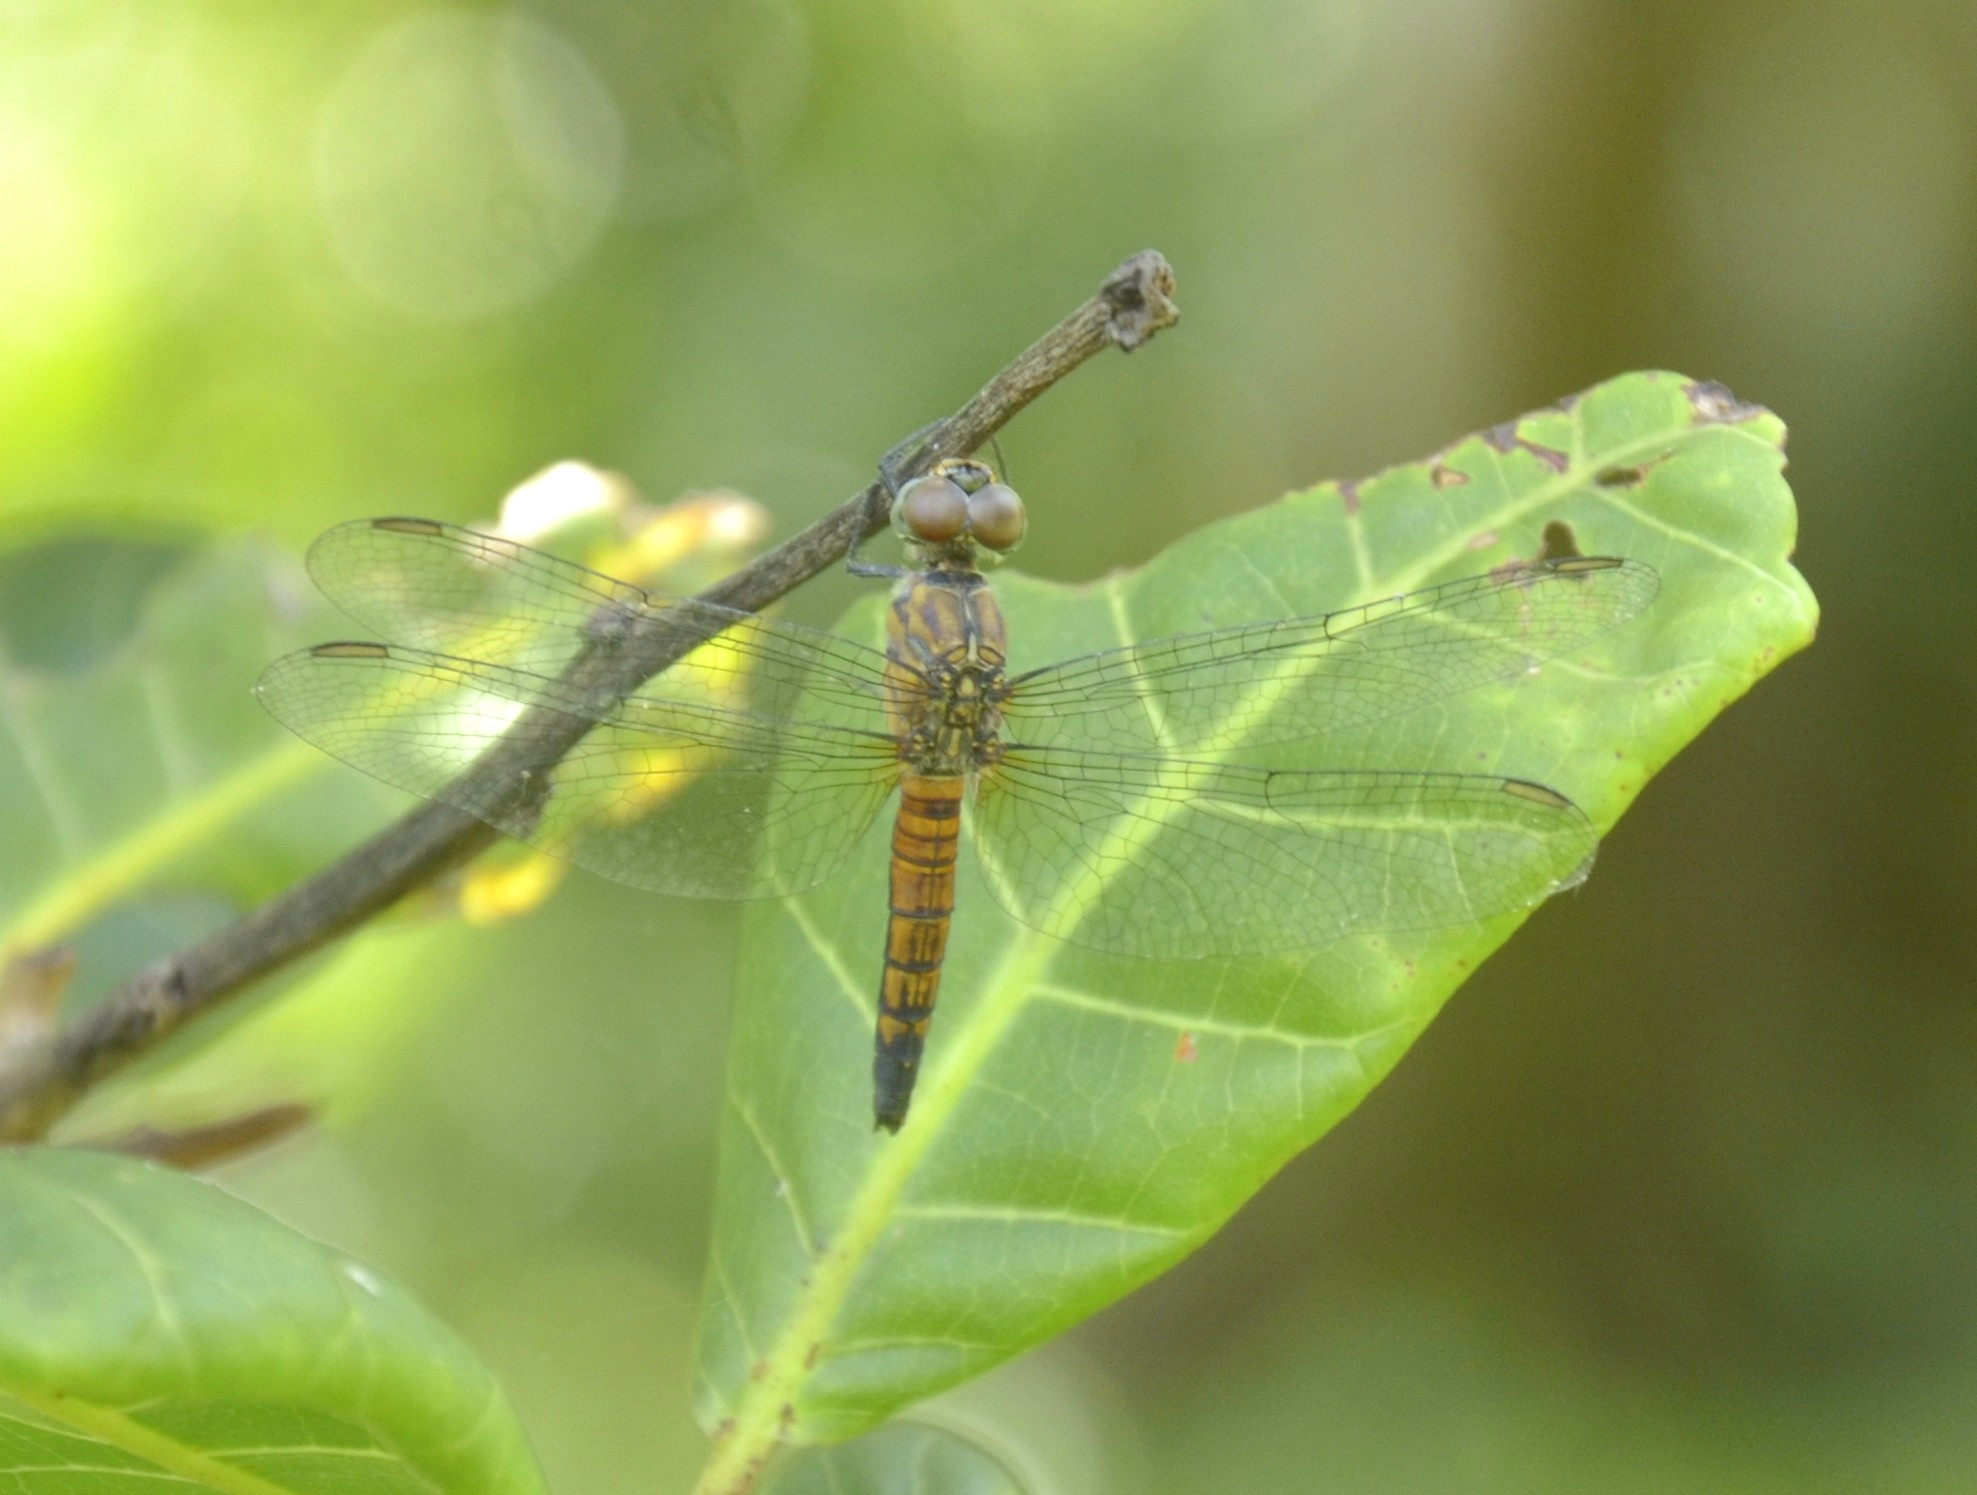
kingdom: Animalia
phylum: Arthropoda
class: Insecta
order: Odonata
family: Libellulidae
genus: Brachydiplax
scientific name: Brachydiplax chalybea
